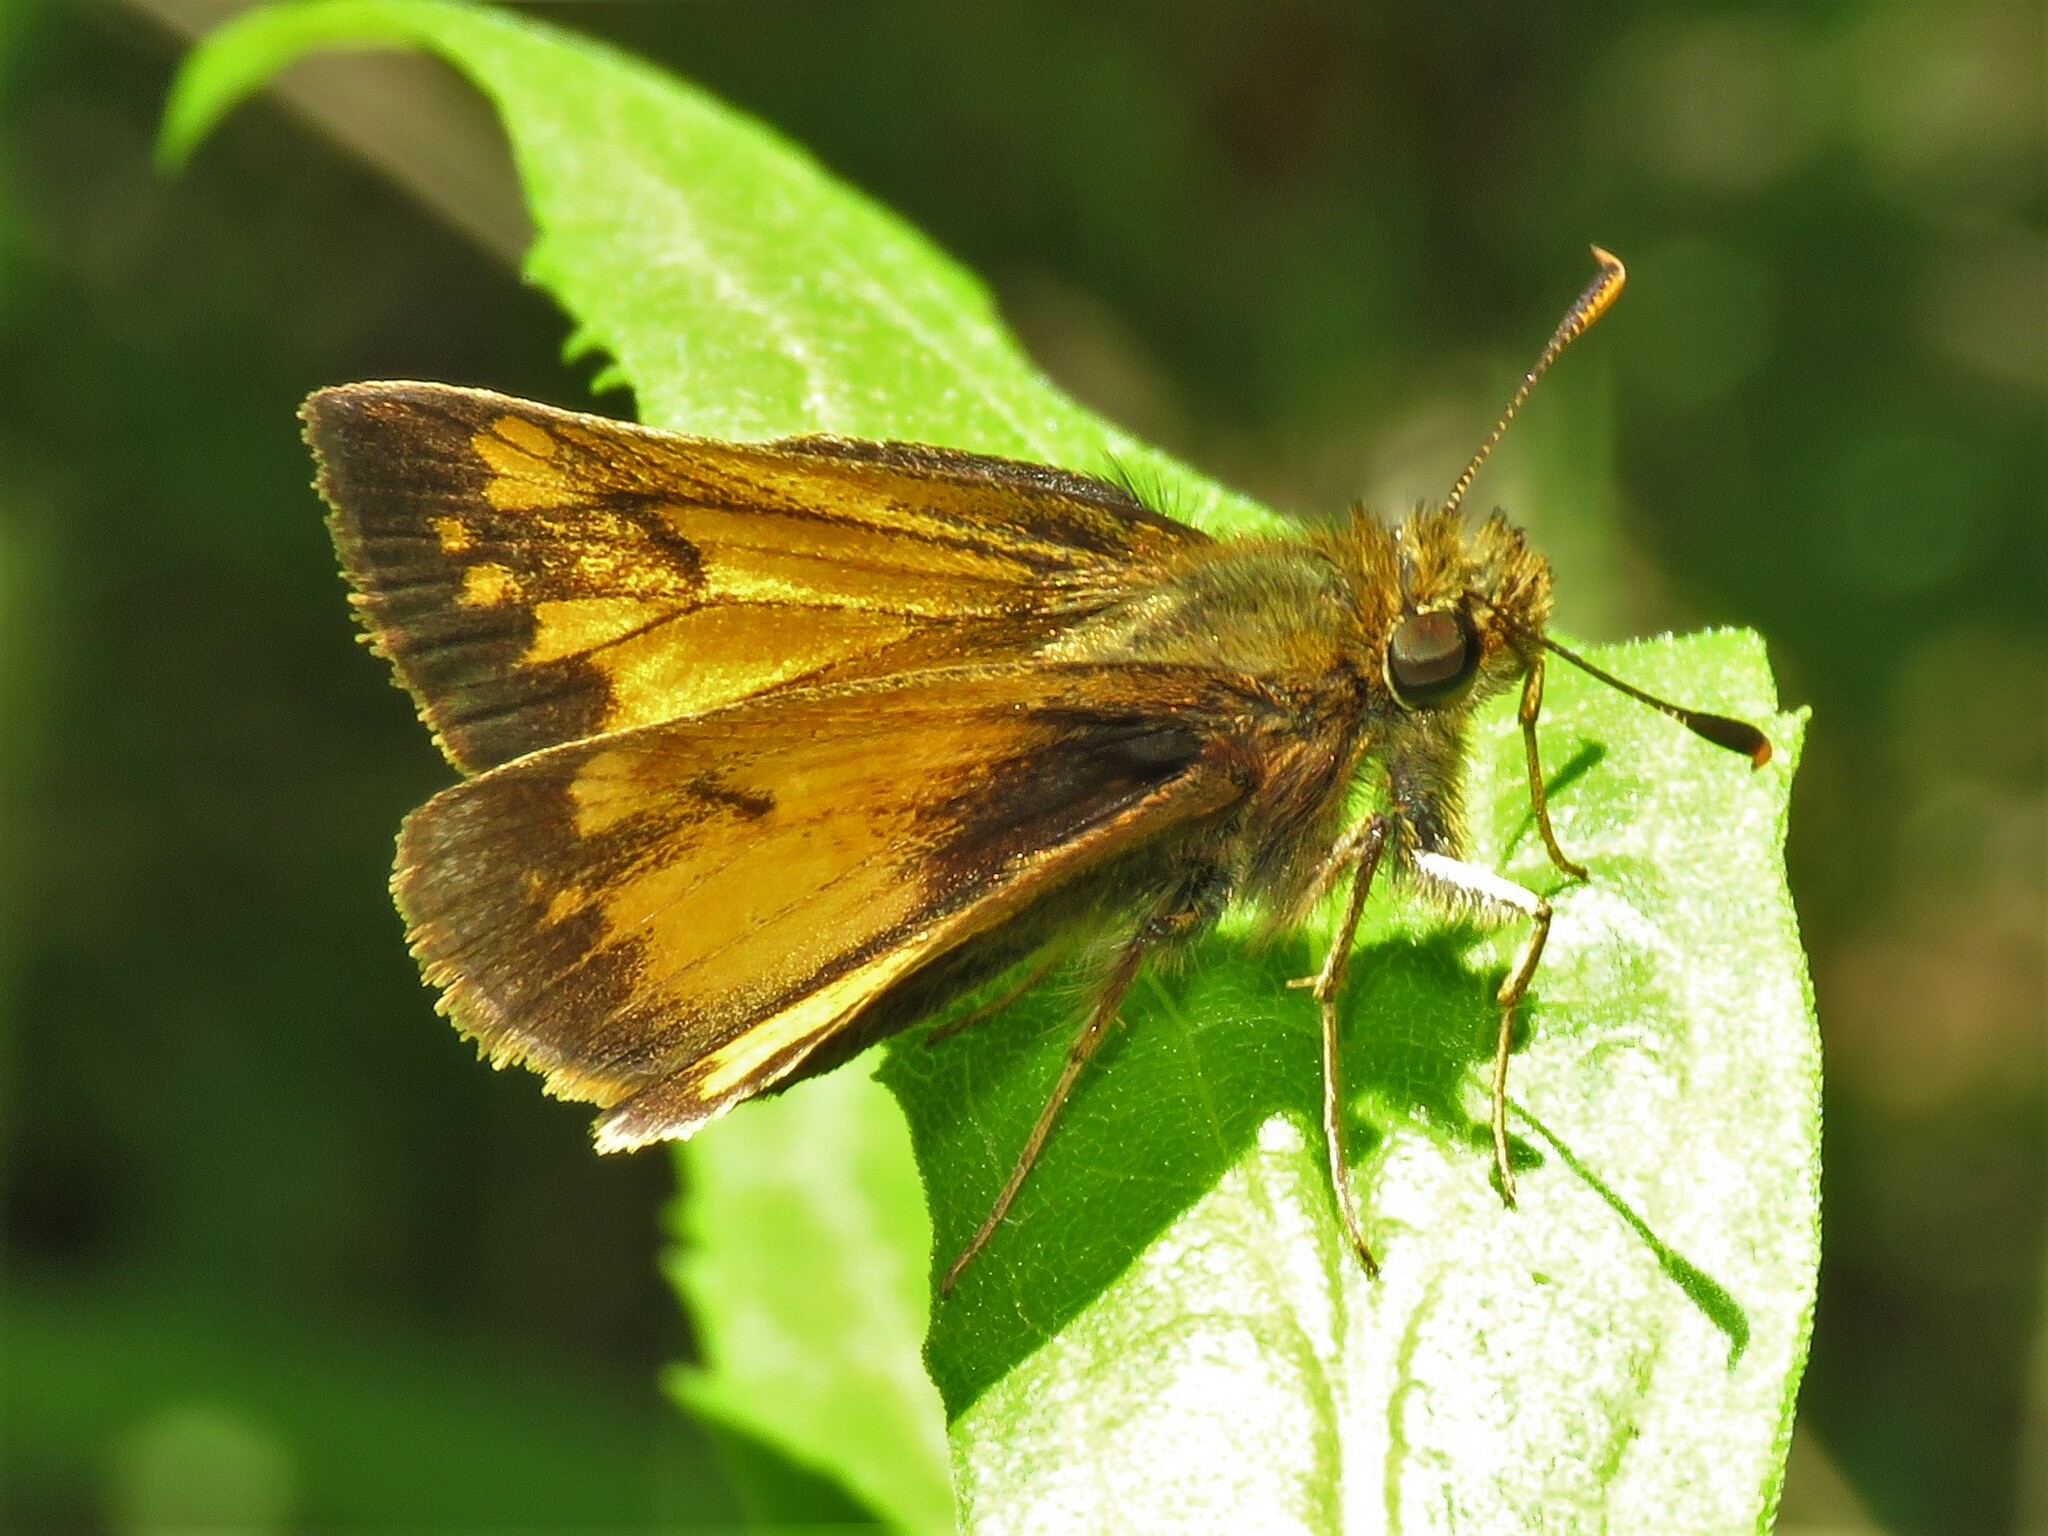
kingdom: Animalia
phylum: Arthropoda
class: Insecta
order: Lepidoptera
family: Hesperiidae
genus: Lon
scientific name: Lon hobomok
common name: Hobomok skipper
